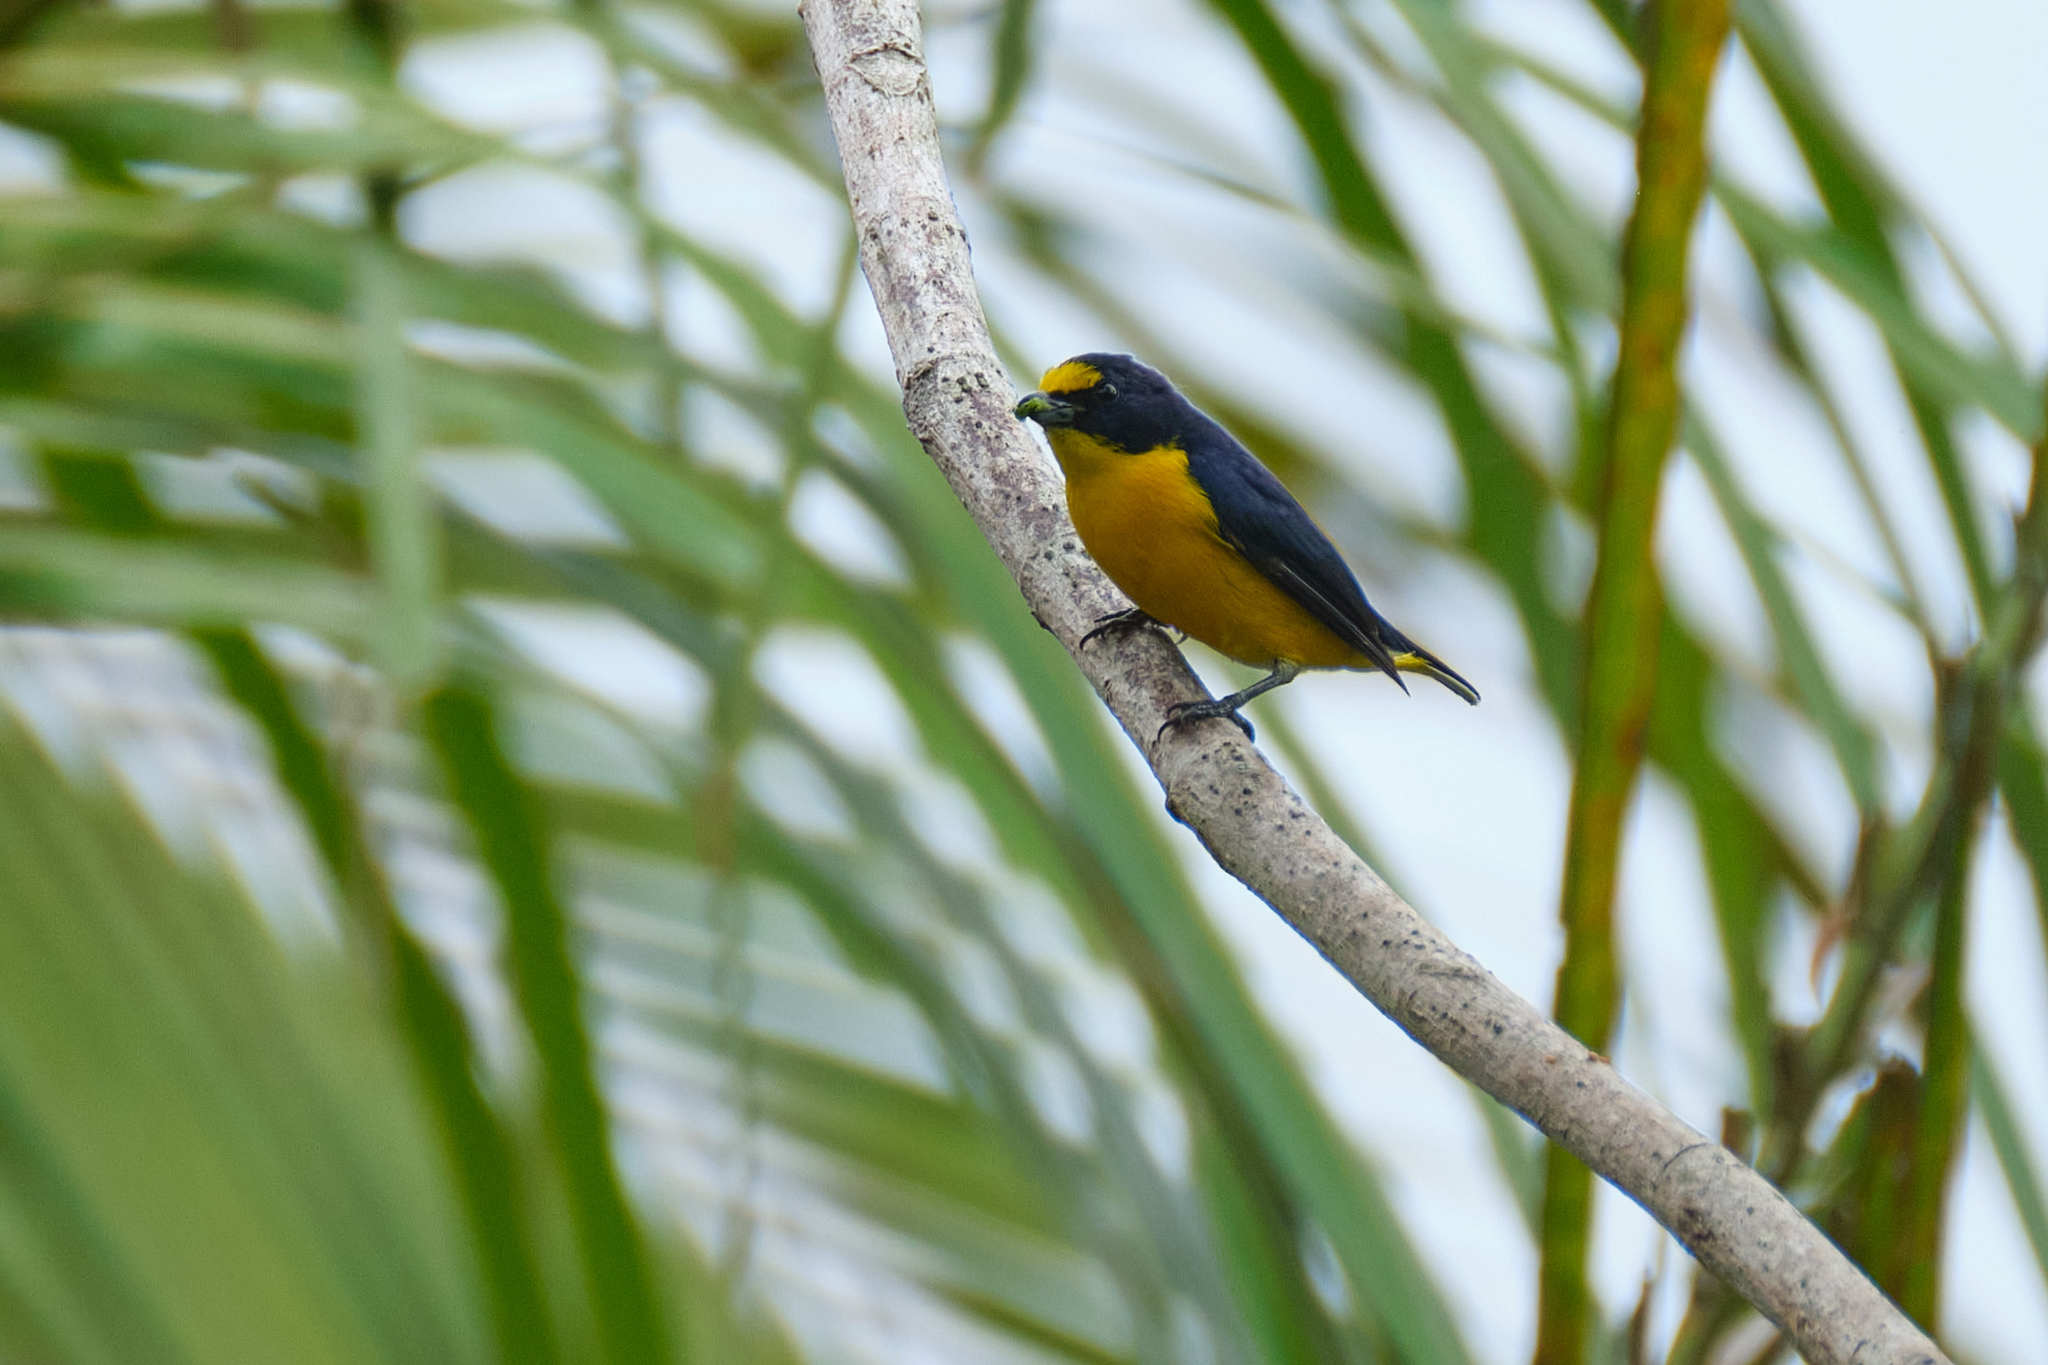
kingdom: Animalia
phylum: Chordata
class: Aves
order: Passeriformes
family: Fringillidae
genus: Euphonia
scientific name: Euphonia hirundinacea
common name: Yellow-throated euphonia
